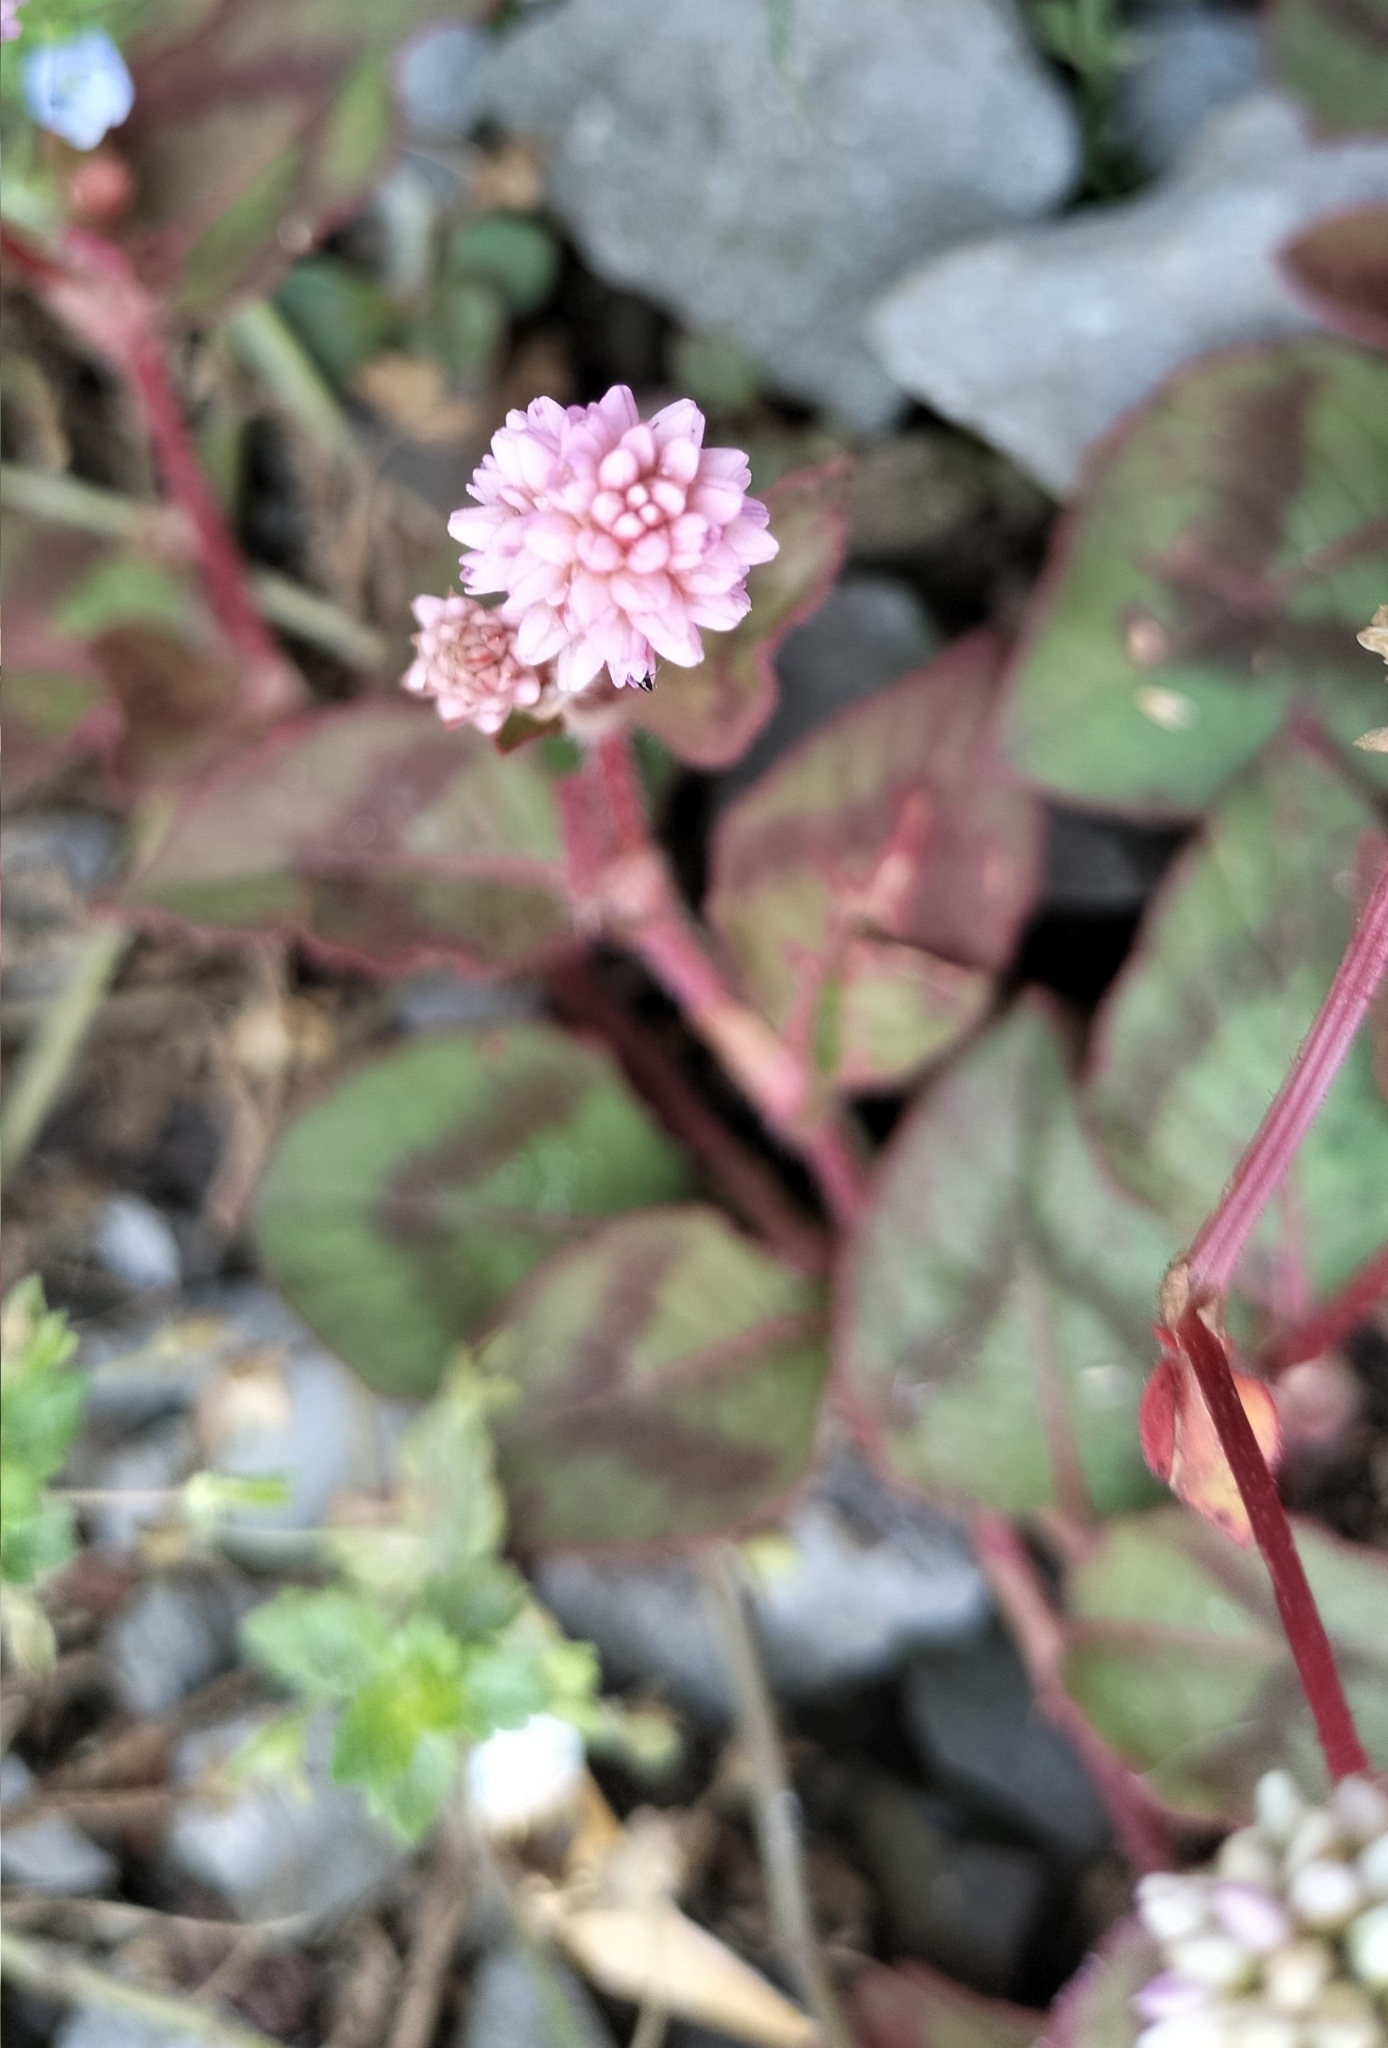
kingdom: Plantae
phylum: Tracheophyta
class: Magnoliopsida
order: Caryophyllales
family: Polygonaceae
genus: Persicaria
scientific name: Persicaria capitata
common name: Pinkhead smartweed
